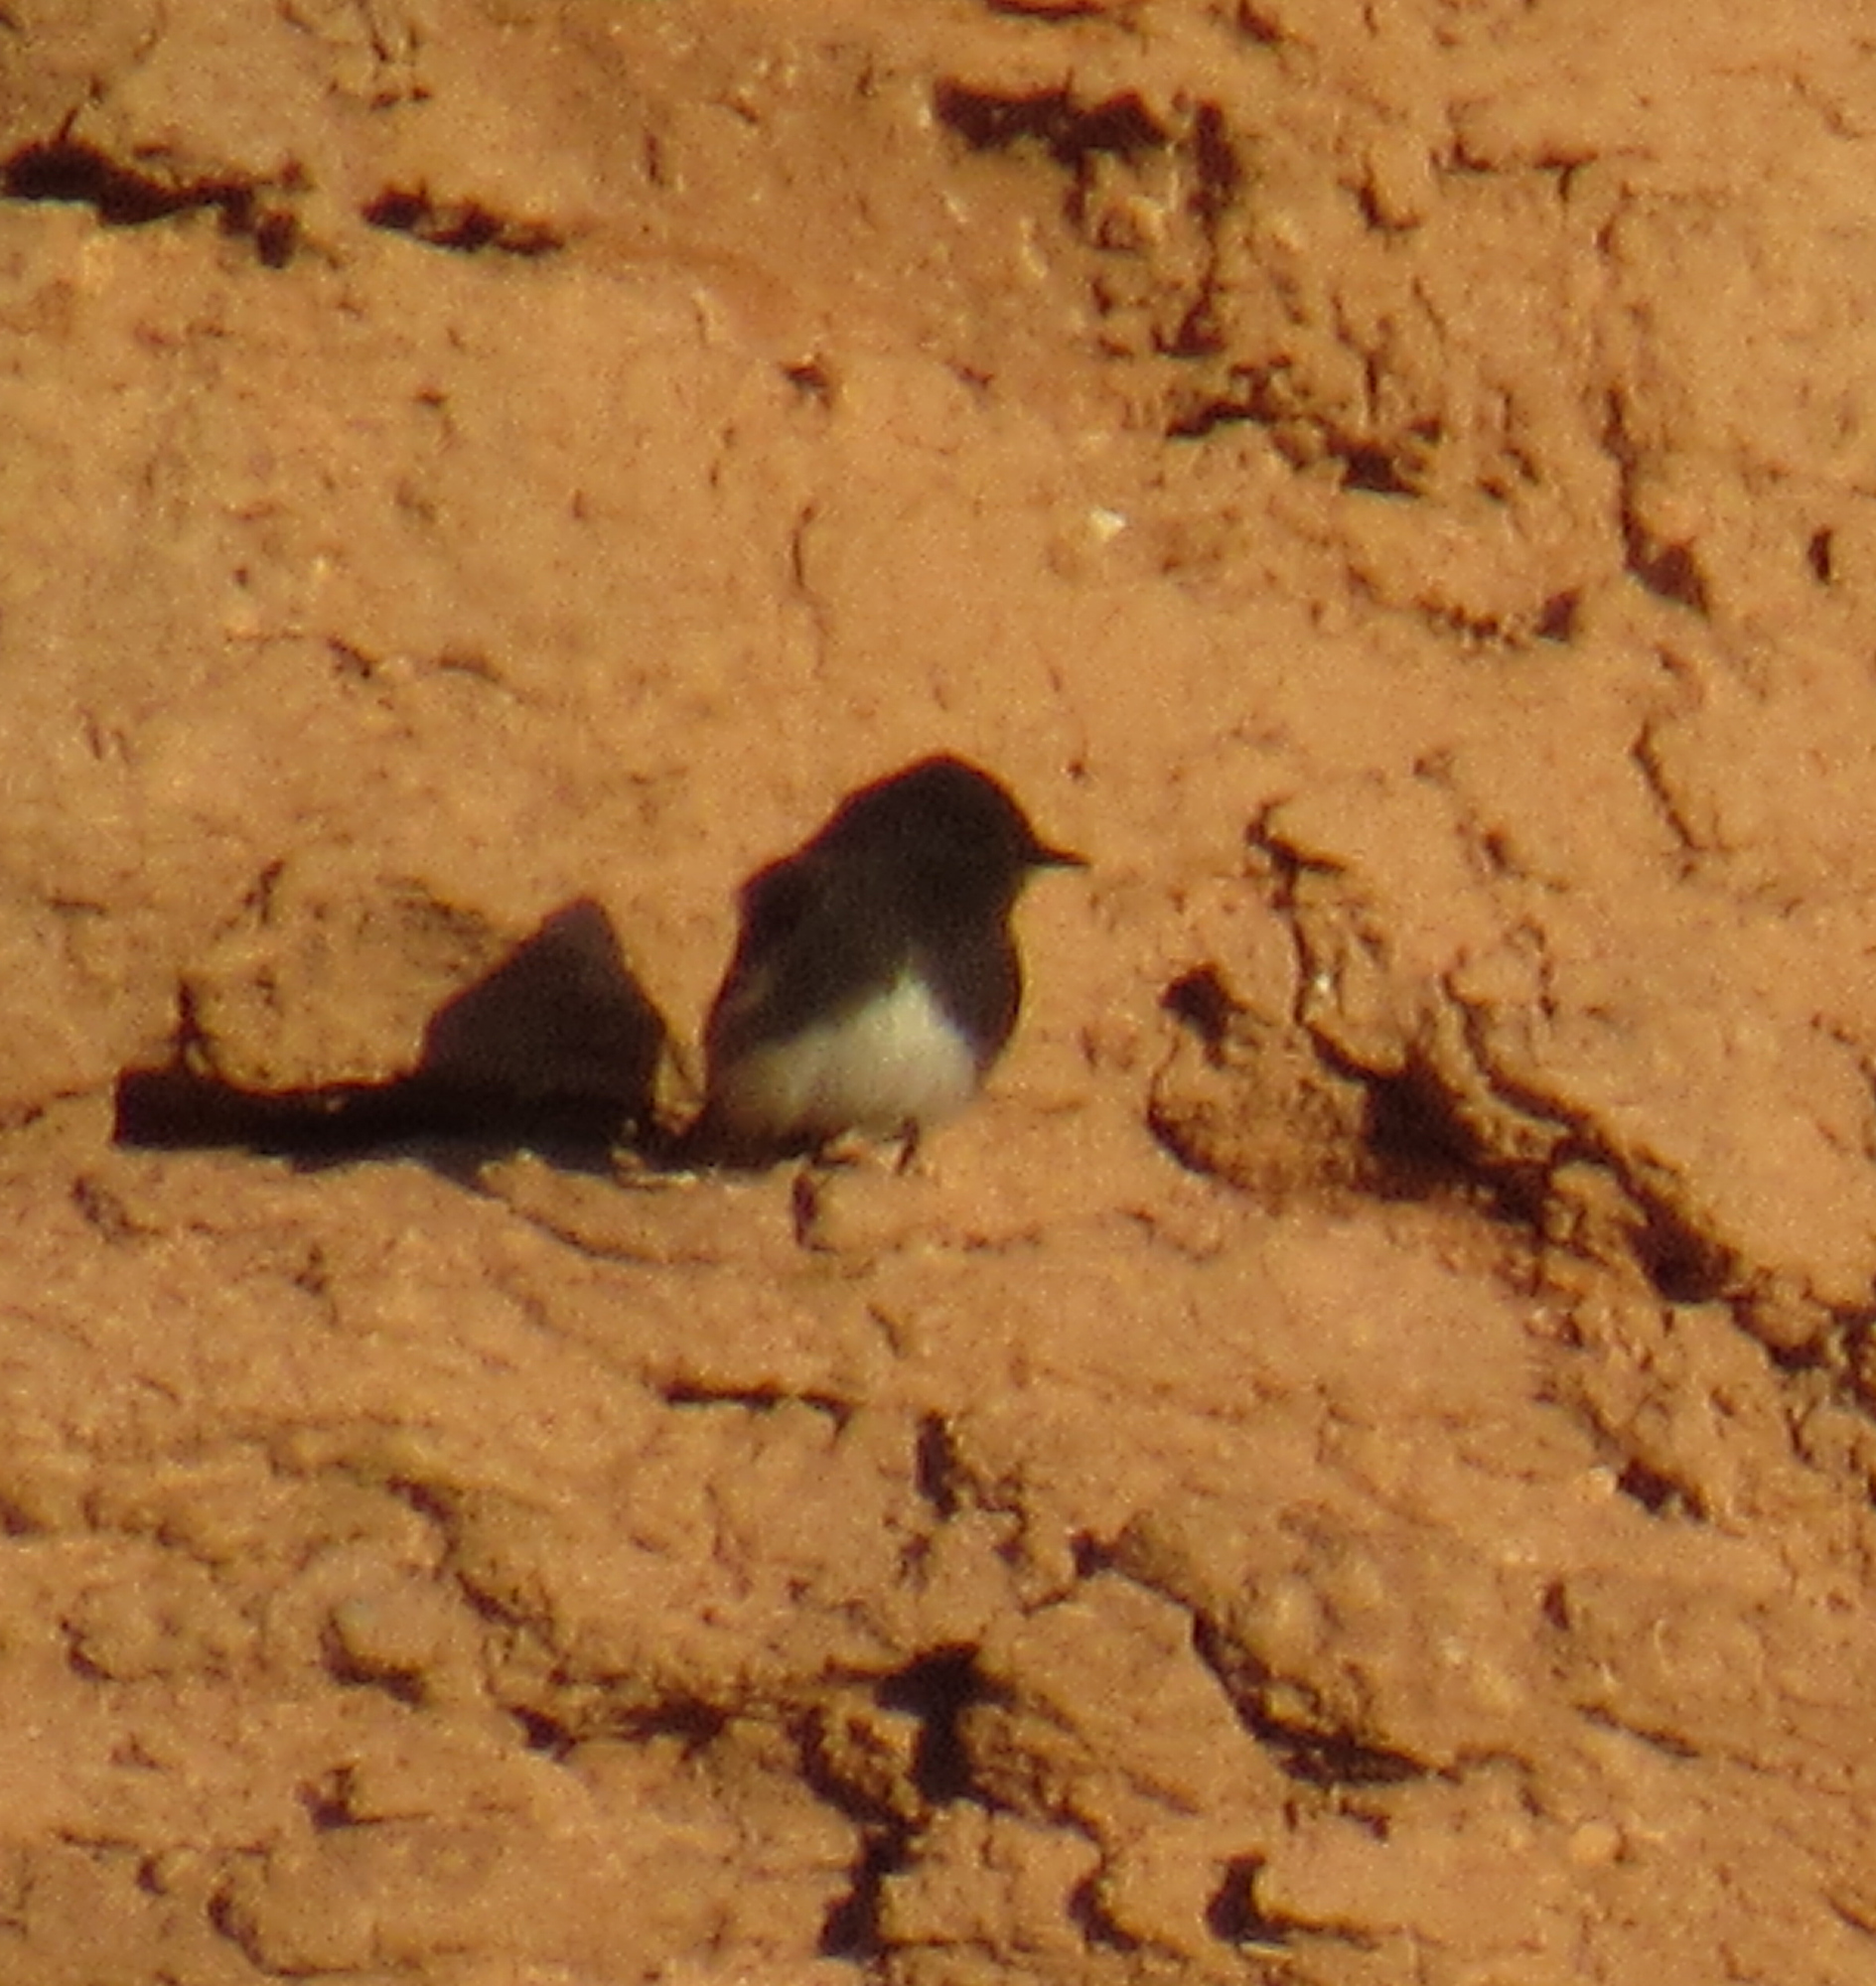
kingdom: Animalia
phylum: Chordata
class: Aves
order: Passeriformes
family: Tyrannidae
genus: Sayornis
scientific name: Sayornis nigricans
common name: Black phoebe
